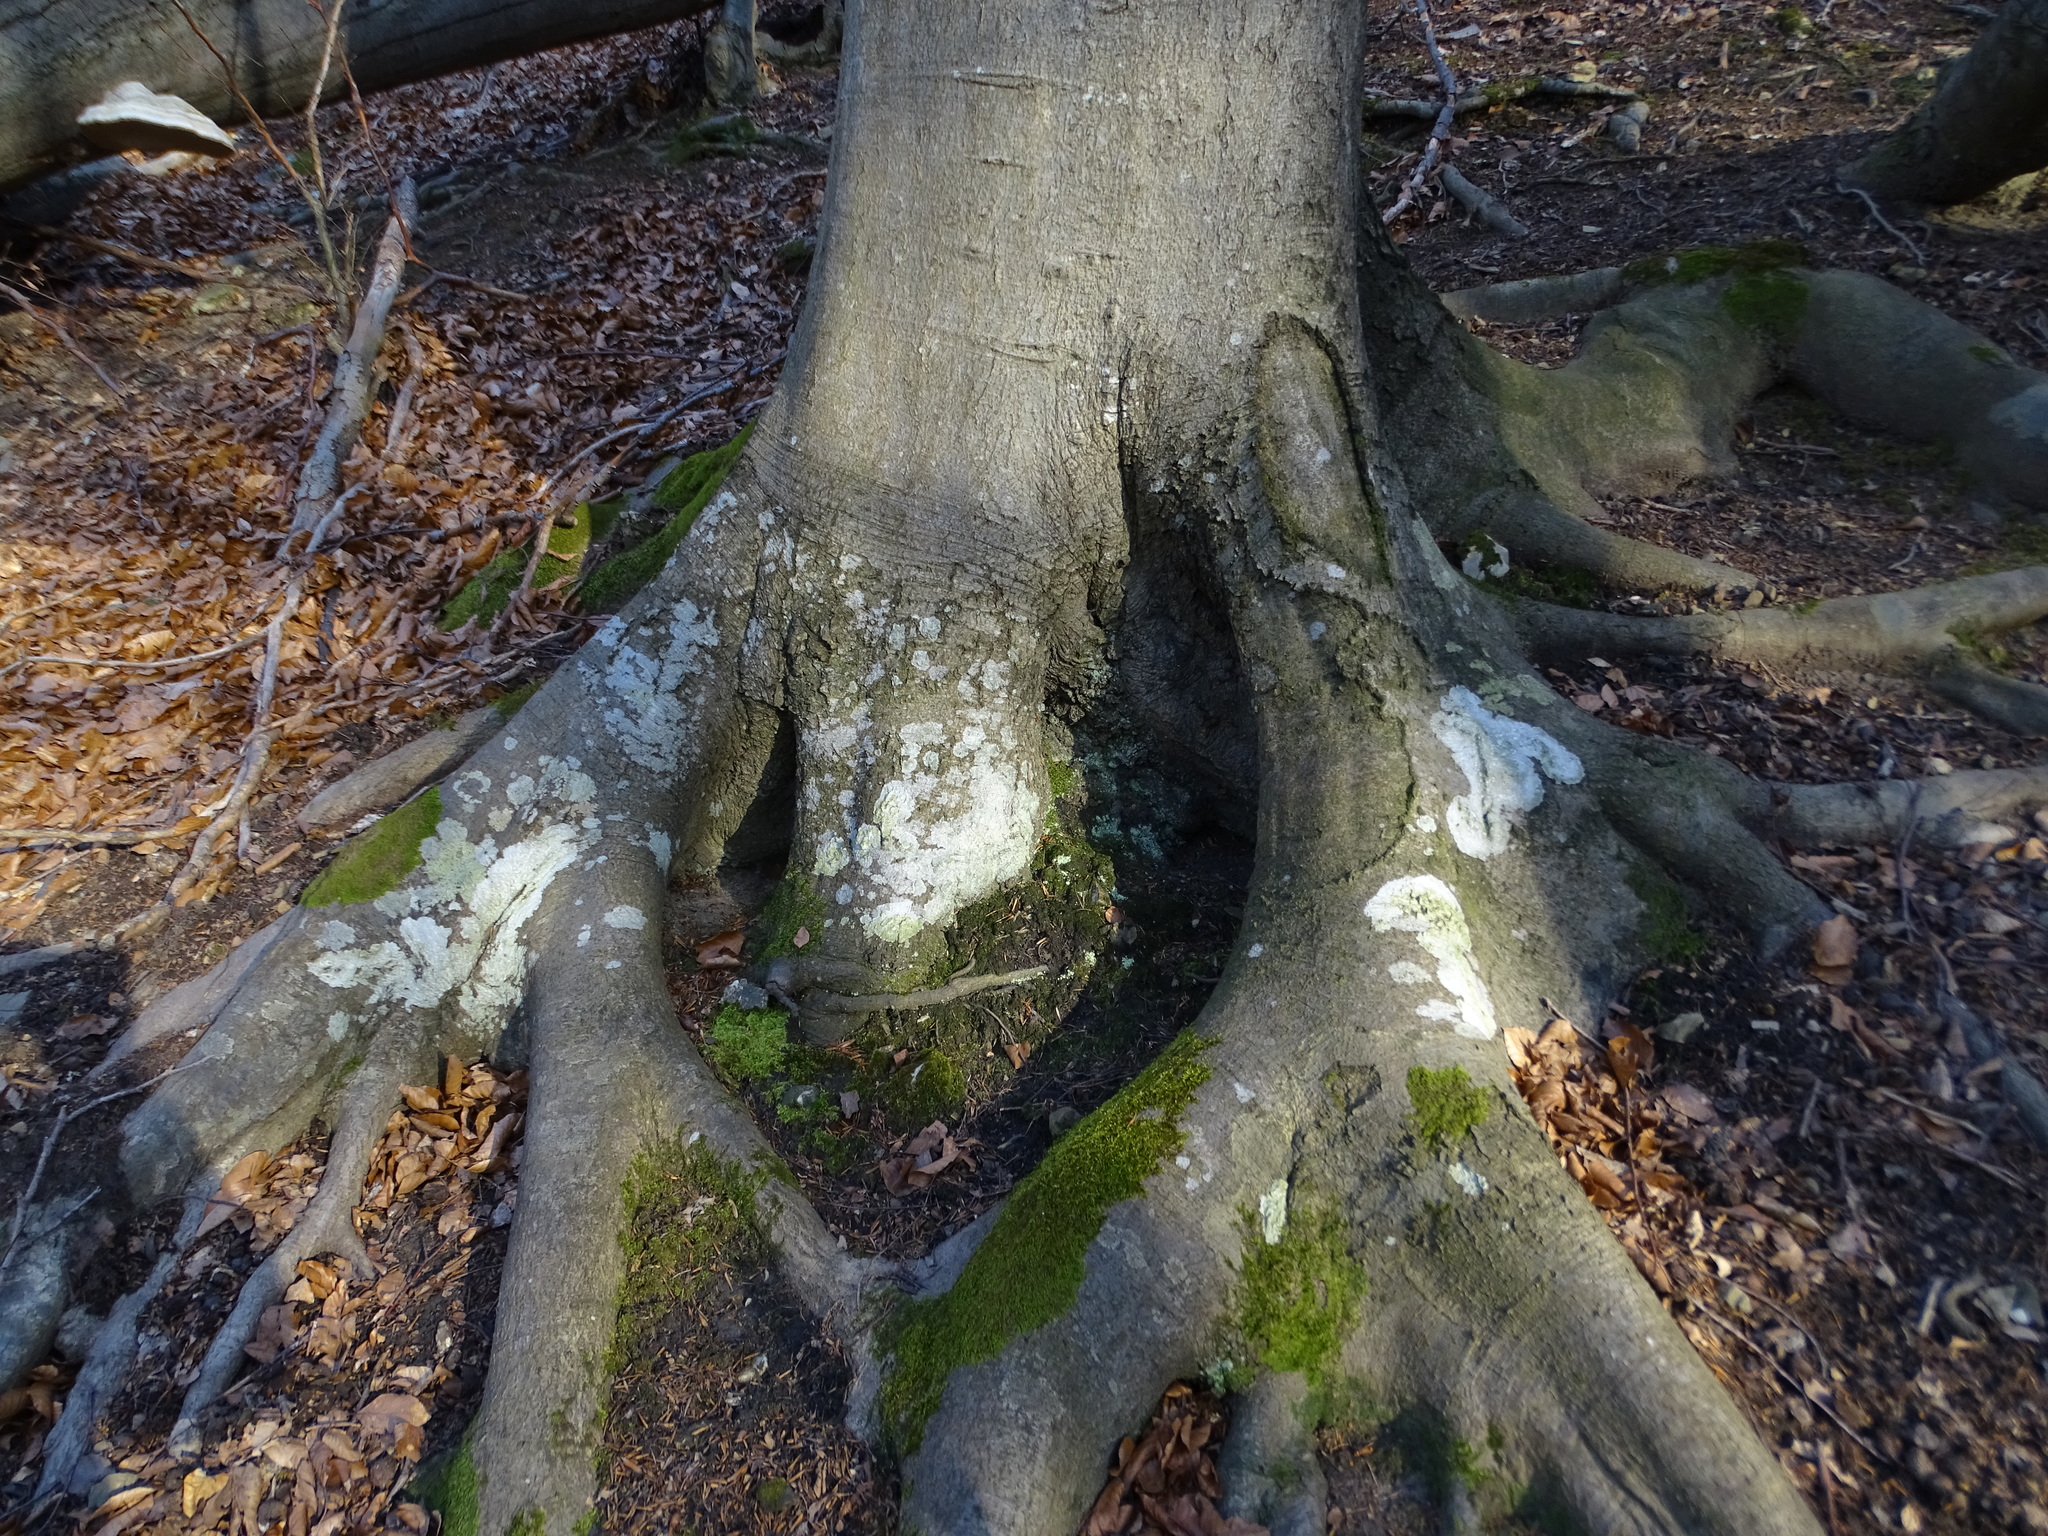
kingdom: Fungi
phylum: Ascomycota
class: Lecanoromycetes
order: Ostropales
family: Phlyctidaceae
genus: Phlyctis
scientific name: Phlyctis argena
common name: Whitewash lichen
